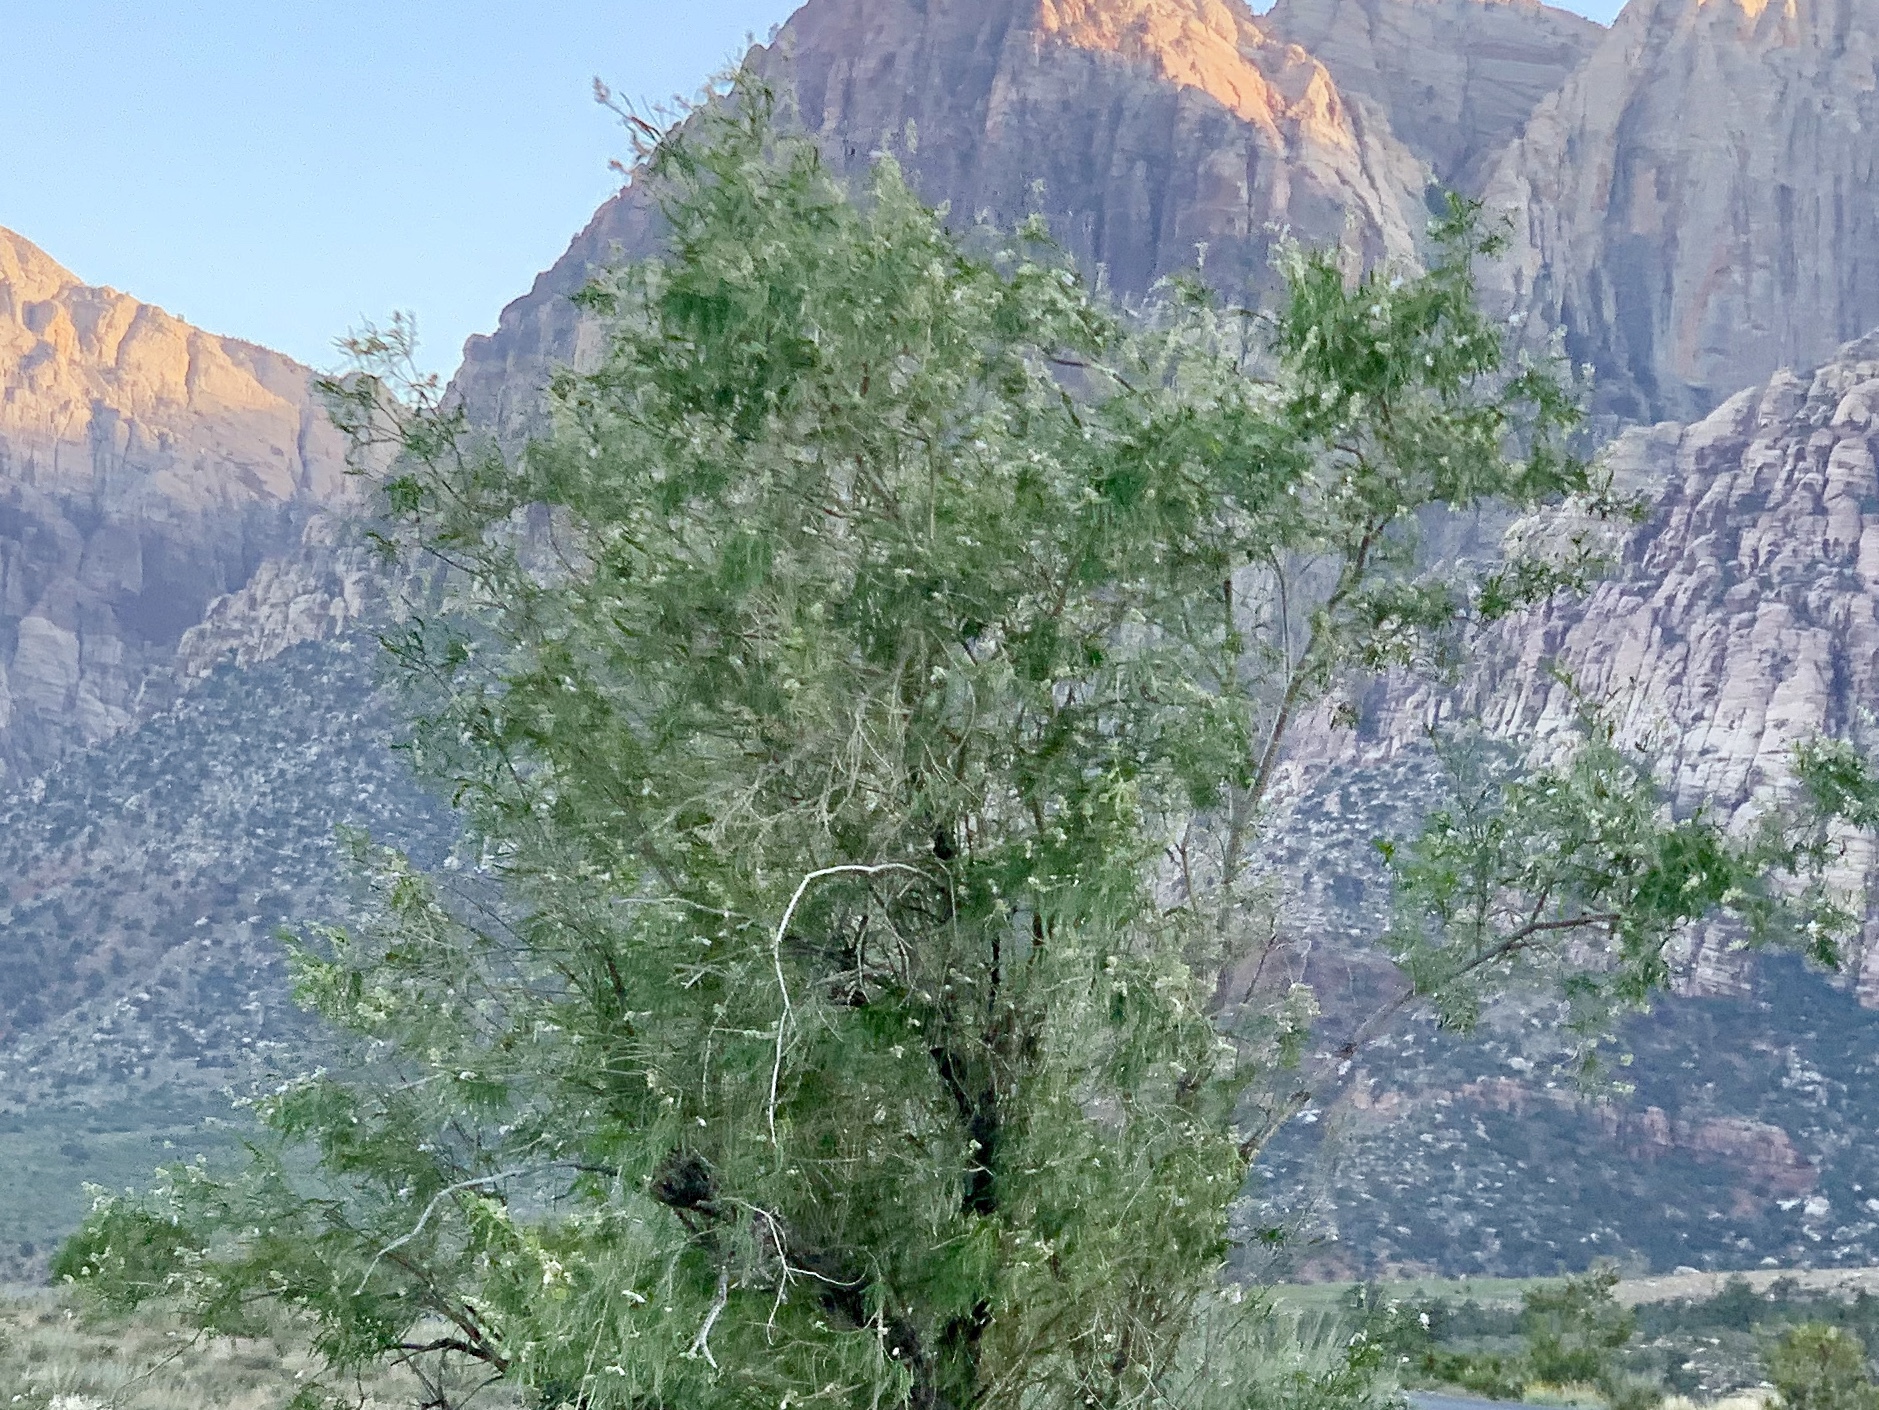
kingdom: Plantae
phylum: Tracheophyta
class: Magnoliopsida
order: Lamiales
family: Bignoniaceae
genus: Chilopsis
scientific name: Chilopsis linearis
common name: Desert-willow
